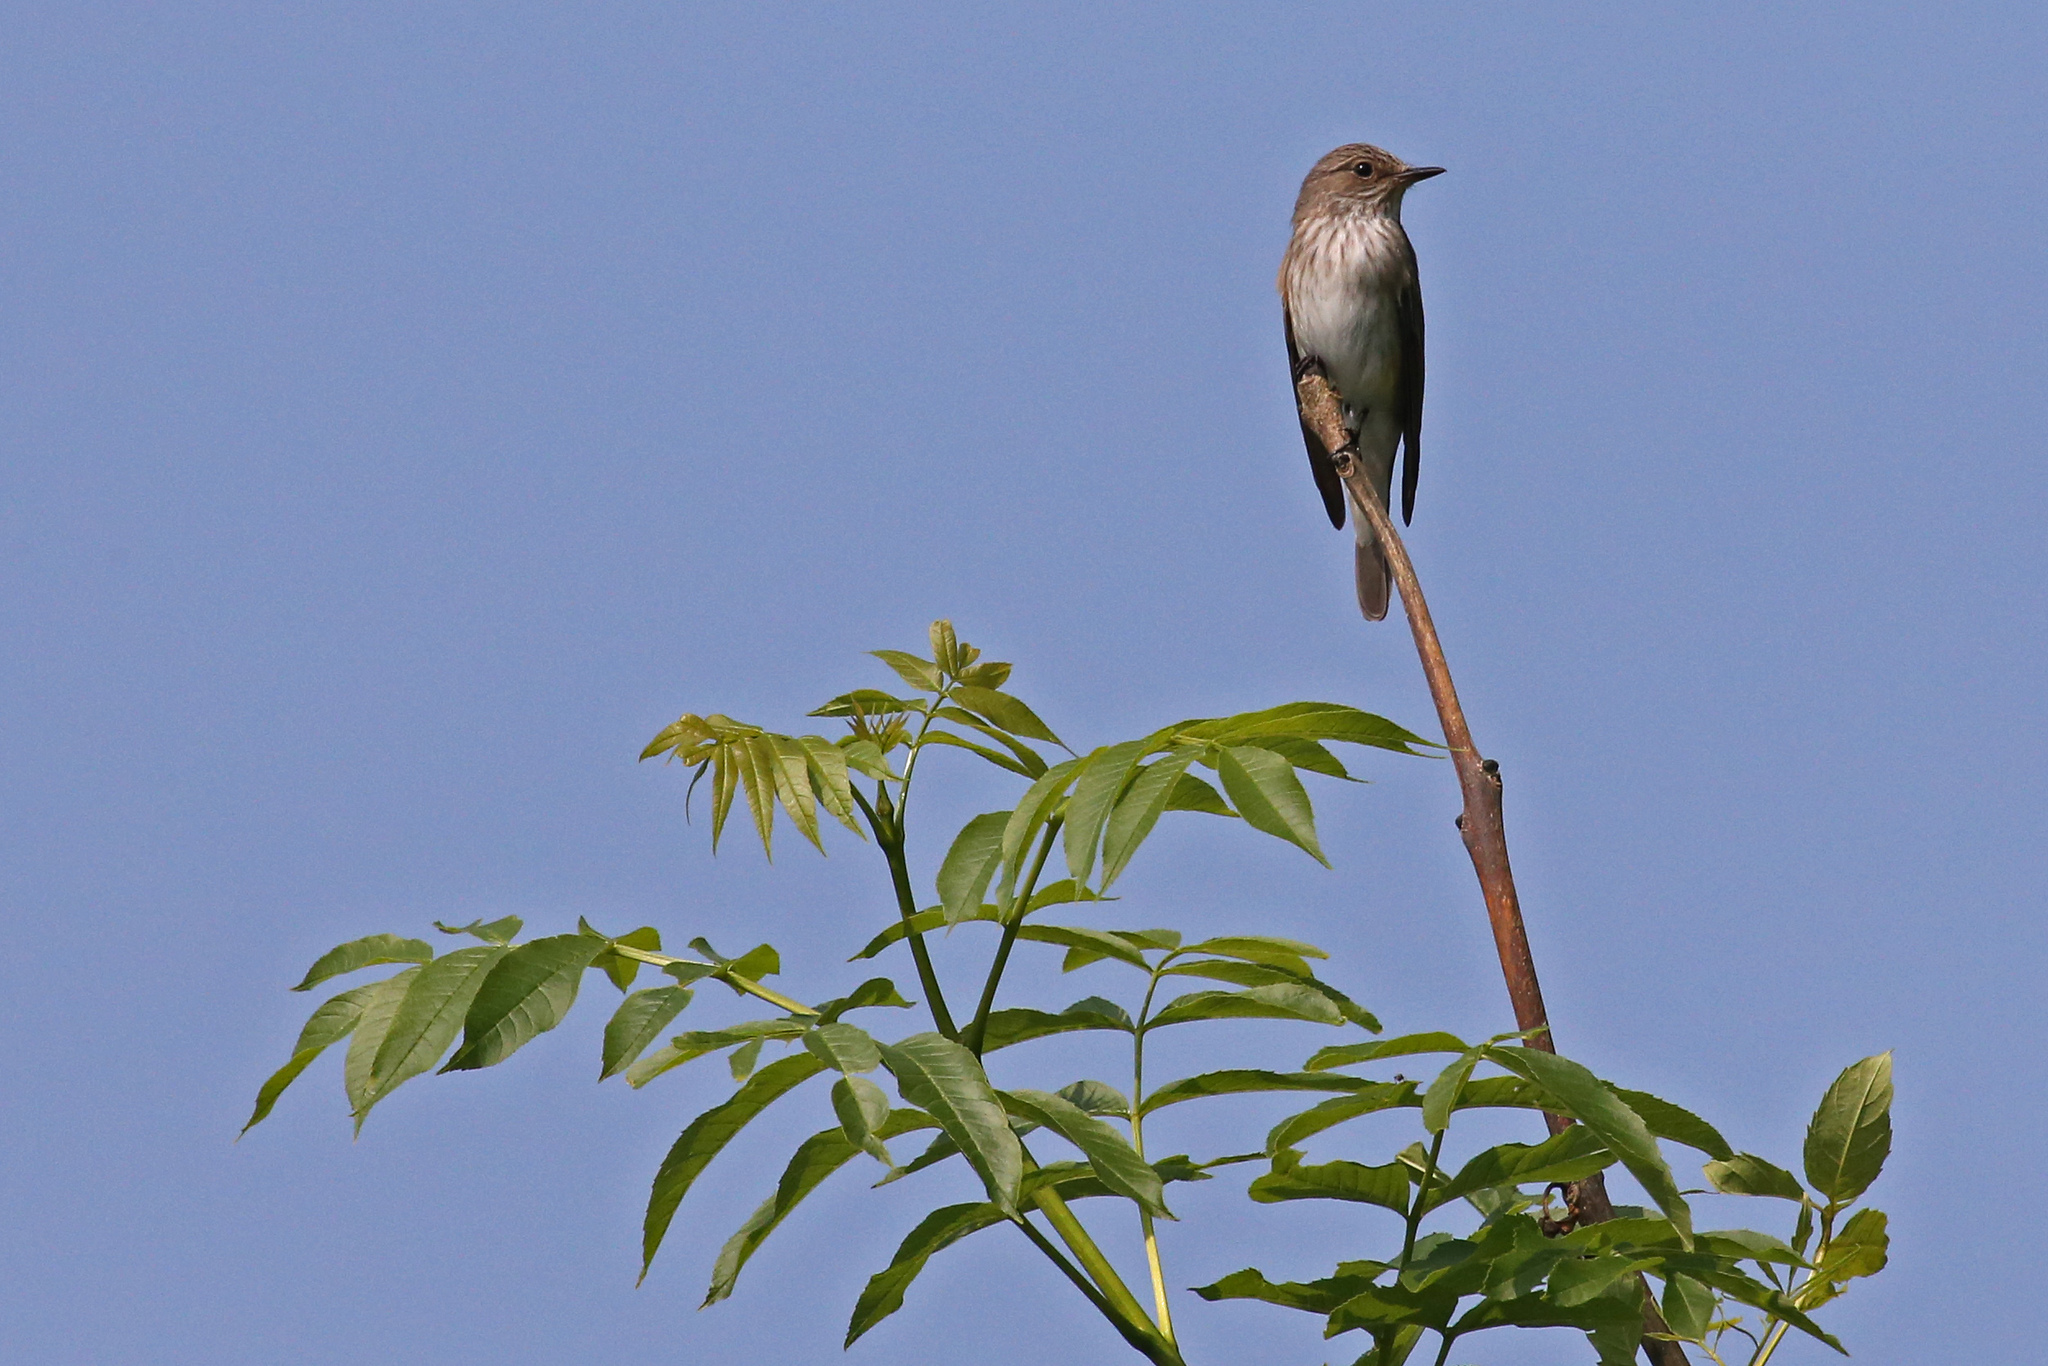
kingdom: Animalia
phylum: Chordata
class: Aves
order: Passeriformes
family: Muscicapidae
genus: Muscicapa
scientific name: Muscicapa striata
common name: Spotted flycatcher
